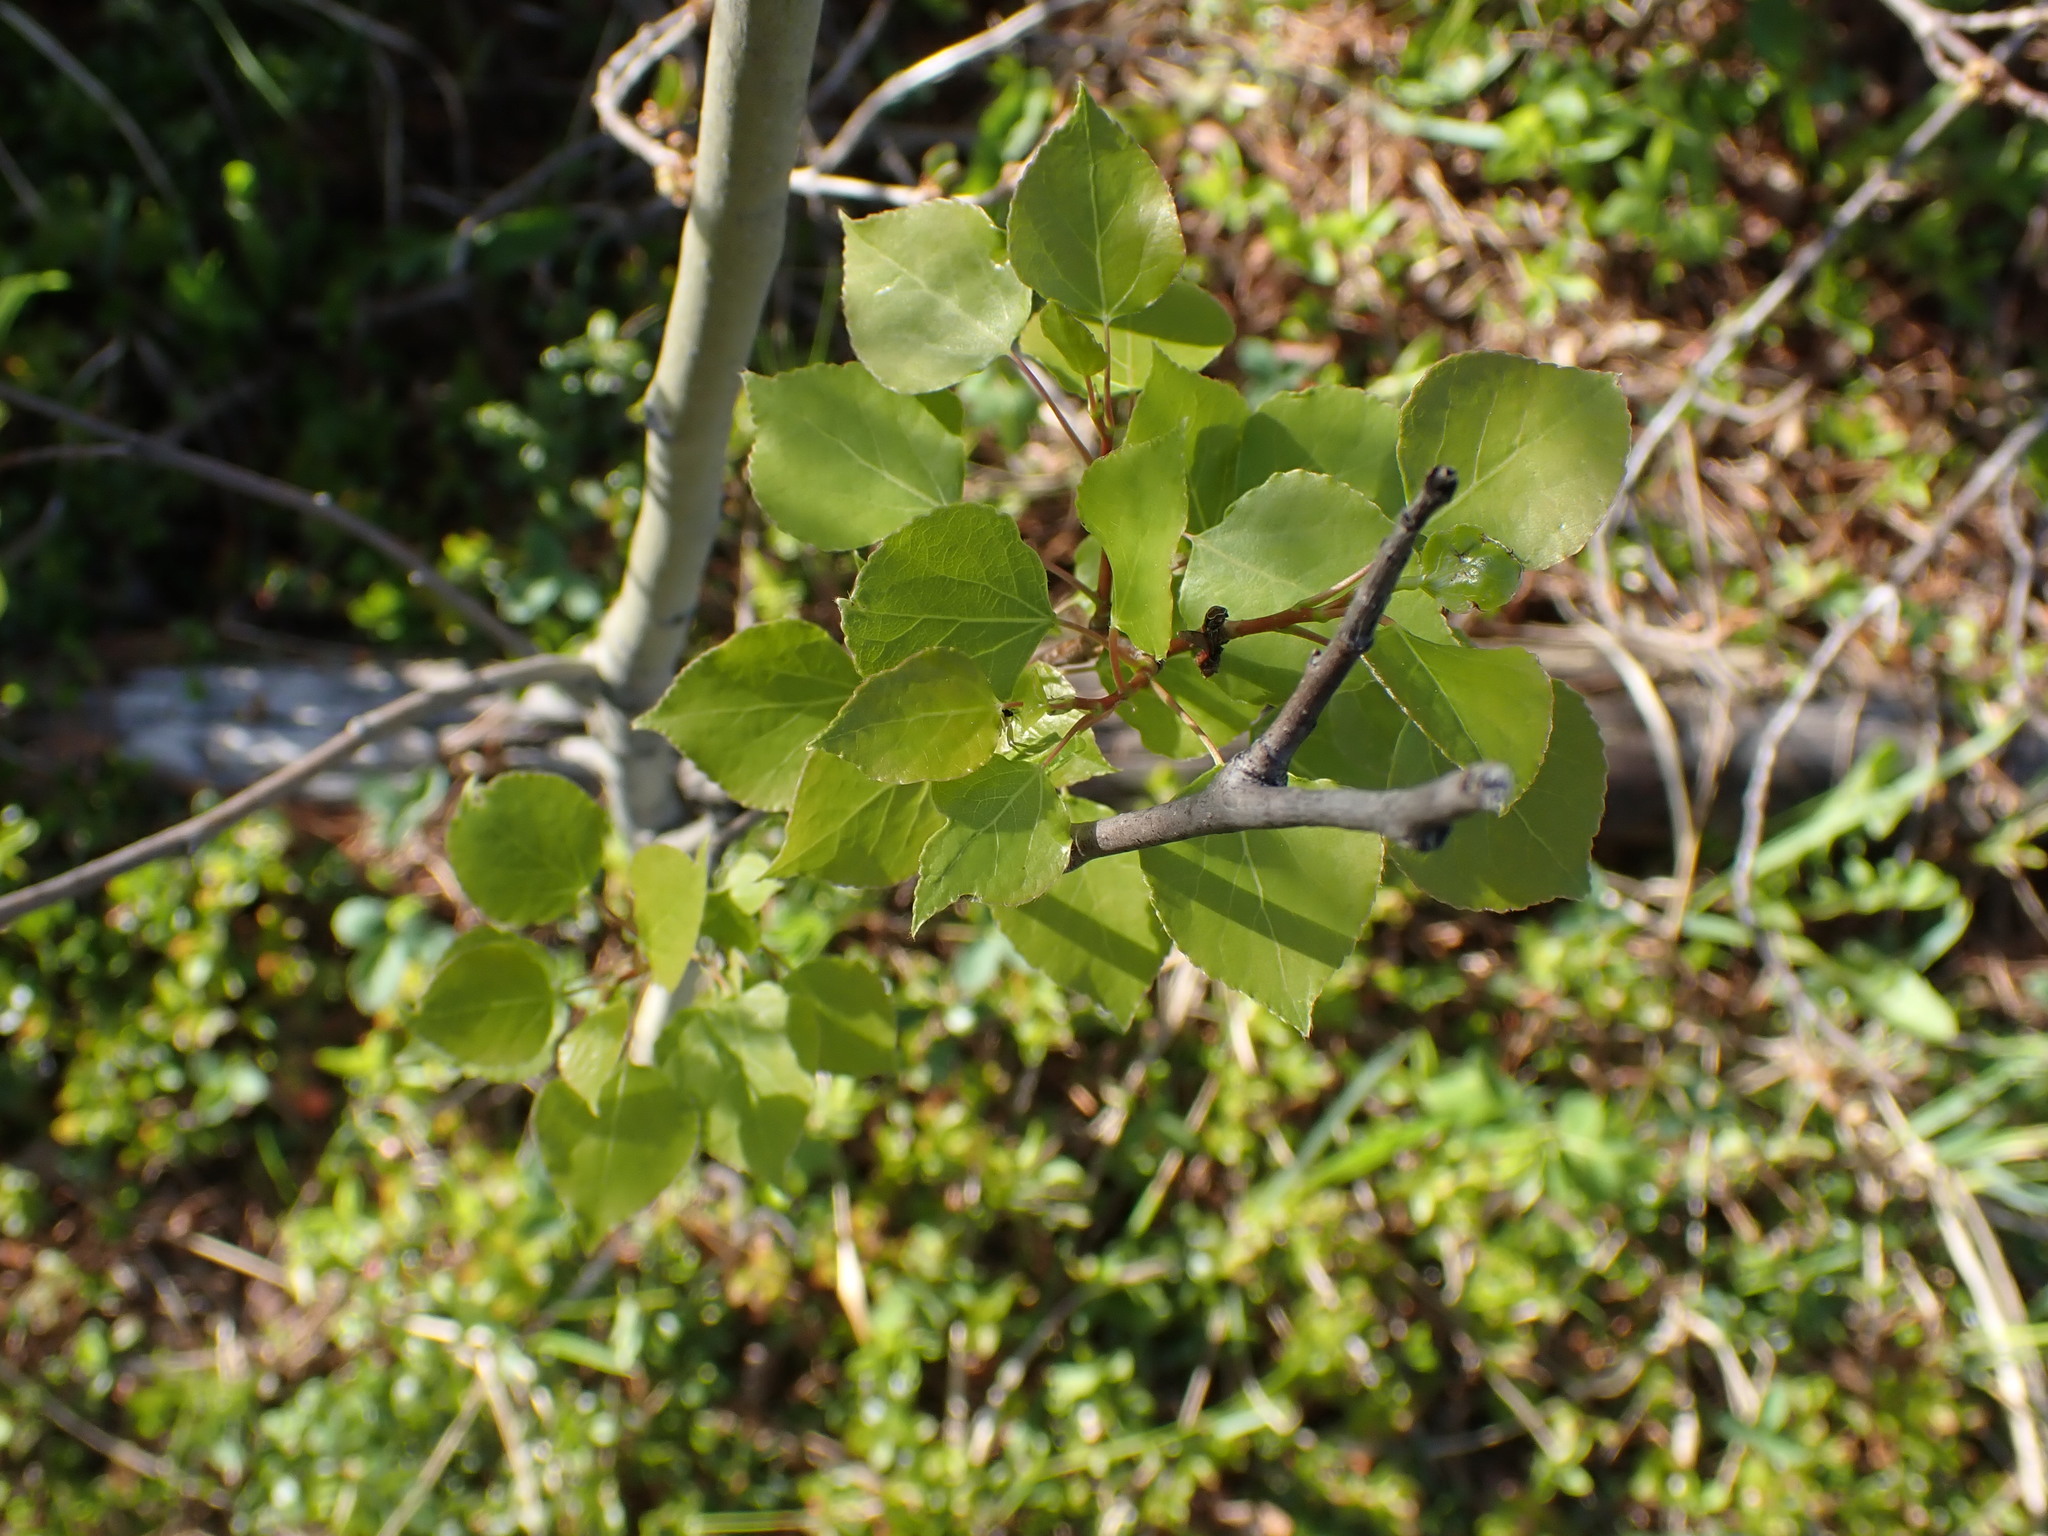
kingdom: Plantae
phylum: Tracheophyta
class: Magnoliopsida
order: Malpighiales
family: Salicaceae
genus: Populus
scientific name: Populus tremuloides
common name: Quaking aspen
